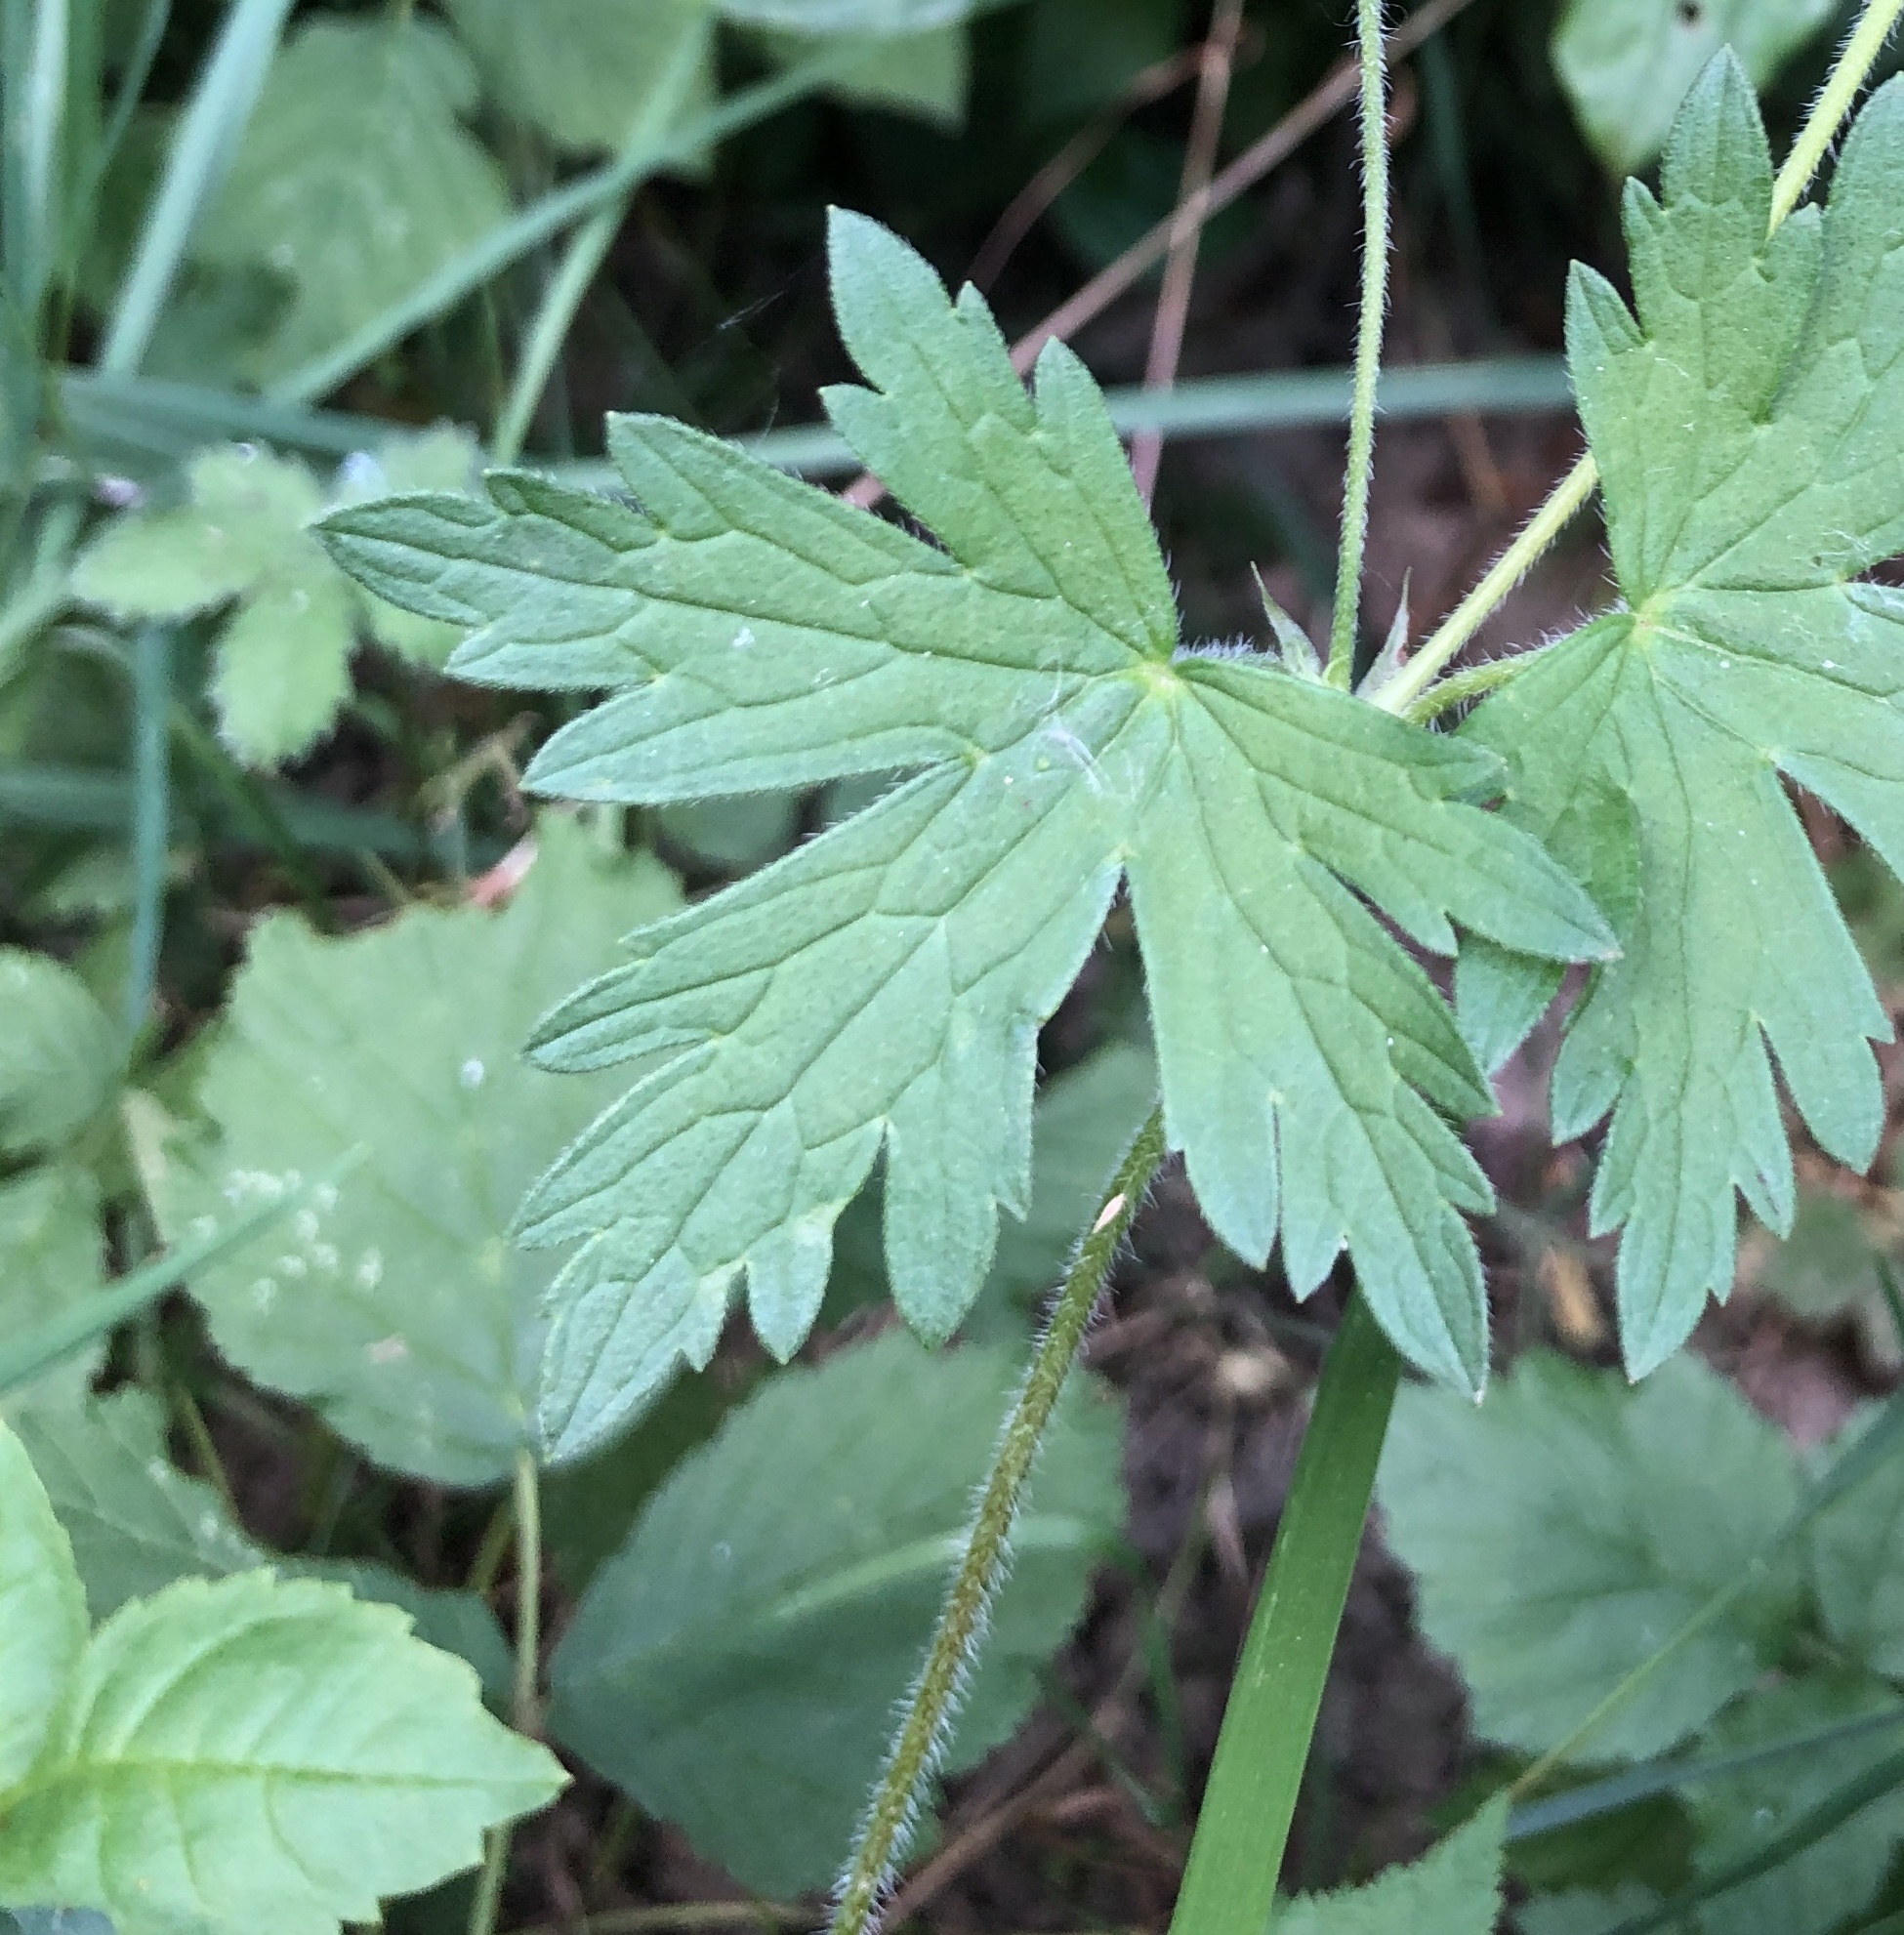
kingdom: Plantae
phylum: Tracheophyta
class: Magnoliopsida
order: Geraniales
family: Geraniaceae
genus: Geranium
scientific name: Geranium palustre
